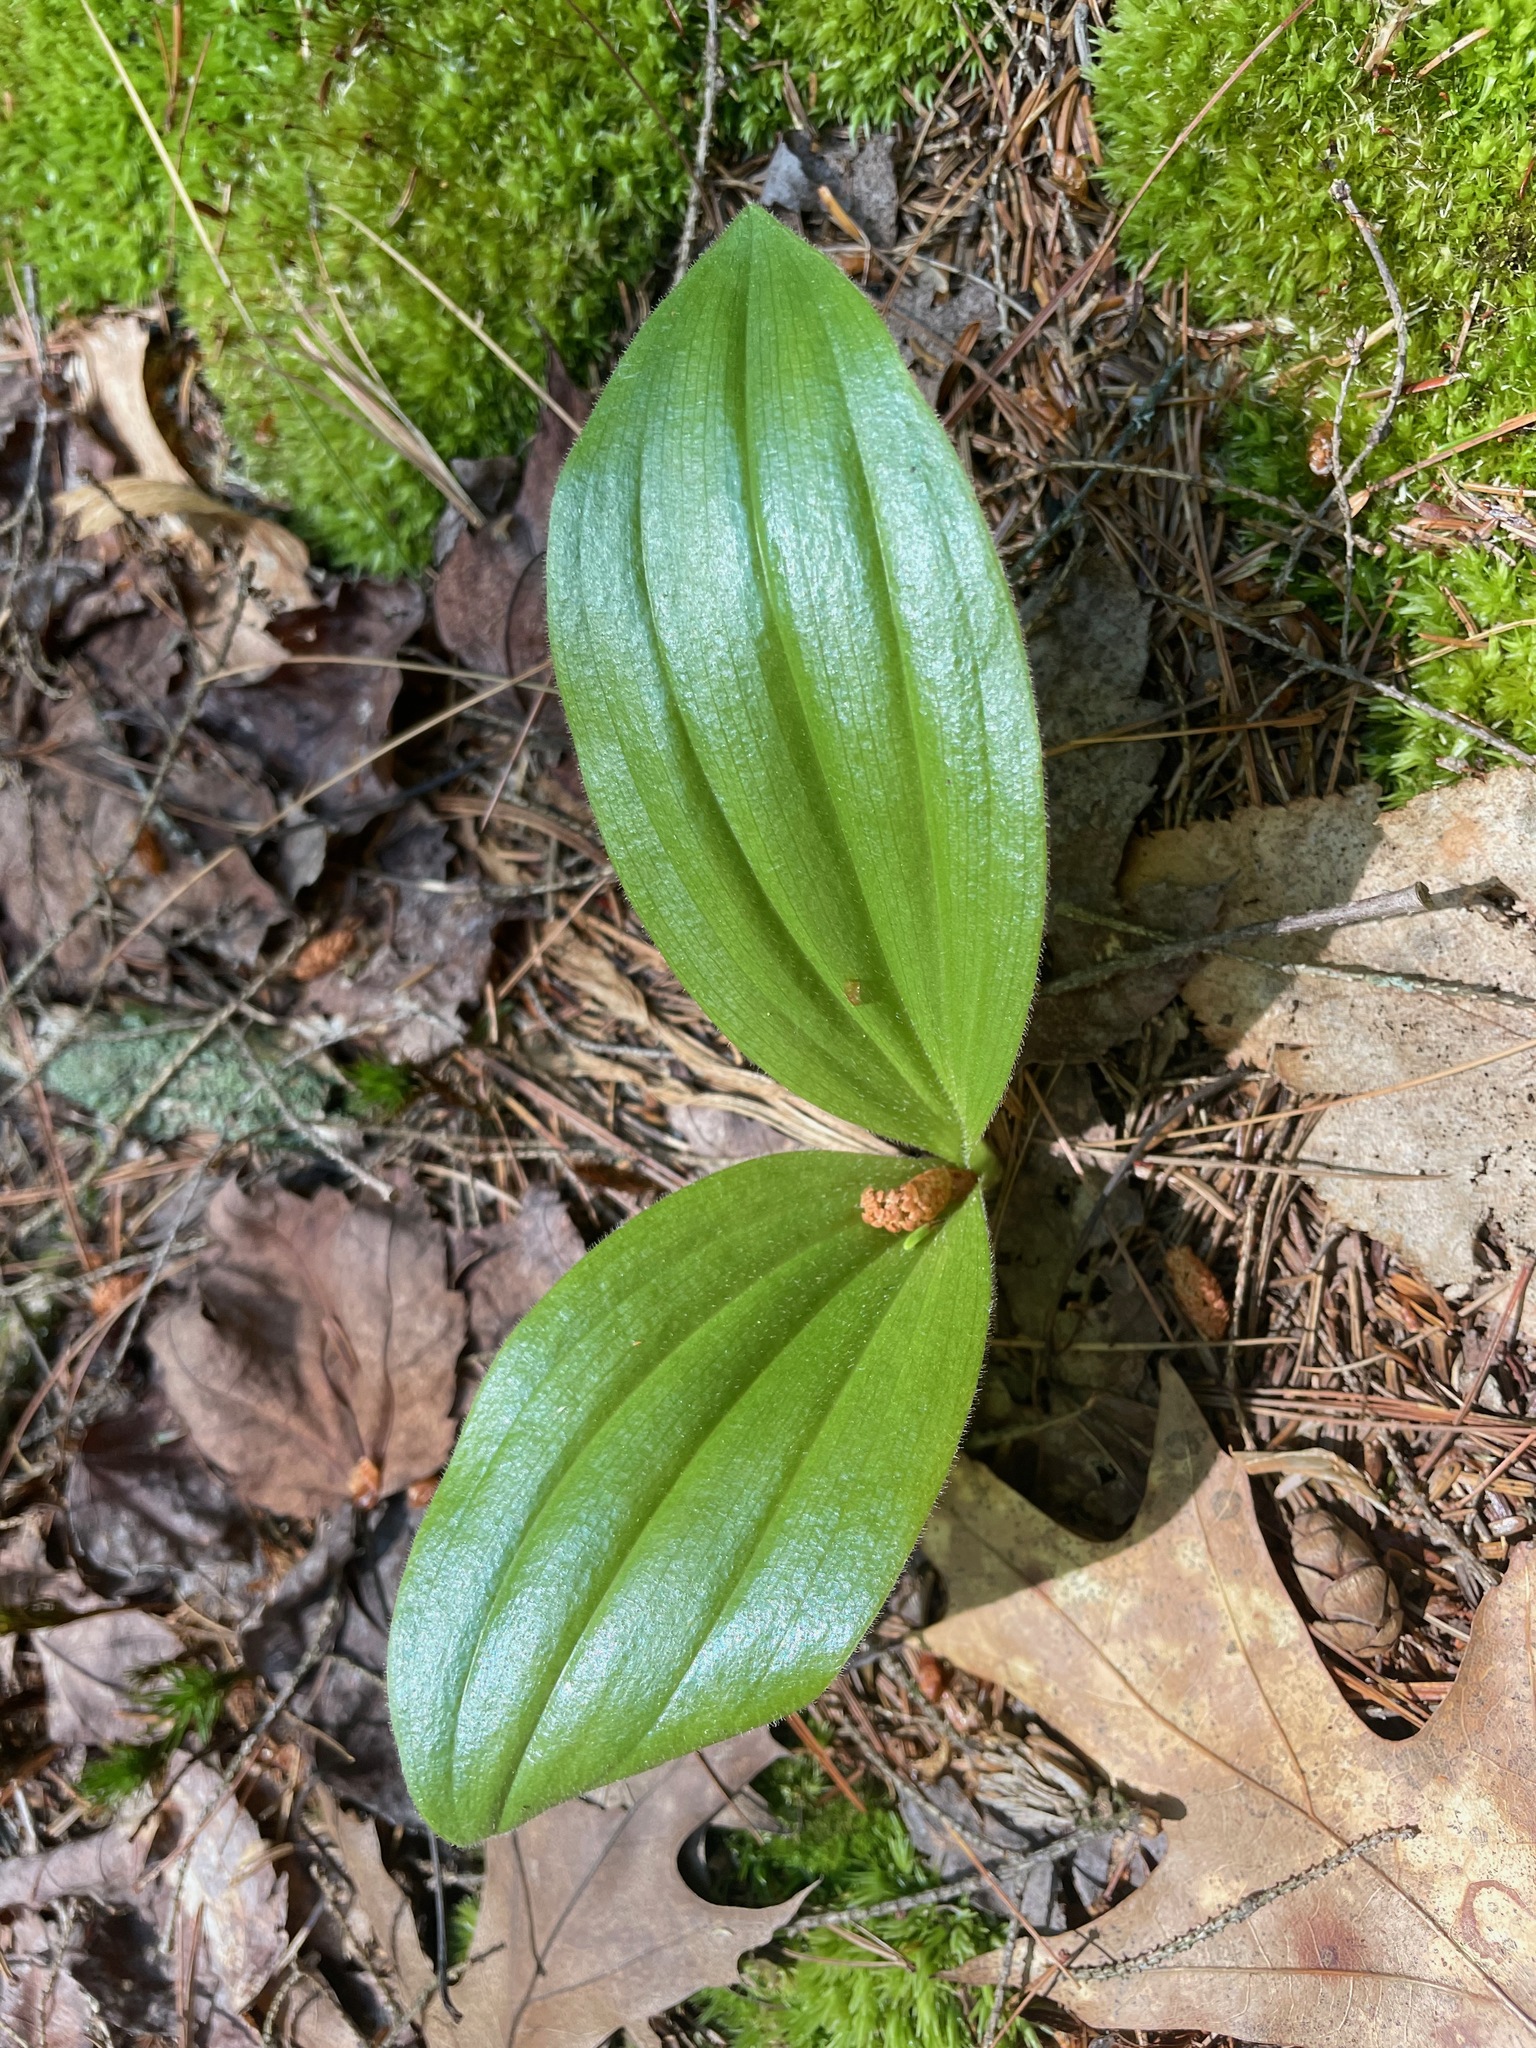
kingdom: Plantae
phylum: Tracheophyta
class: Liliopsida
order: Asparagales
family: Orchidaceae
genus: Cypripedium
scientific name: Cypripedium acaule
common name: Pink lady's-slipper
